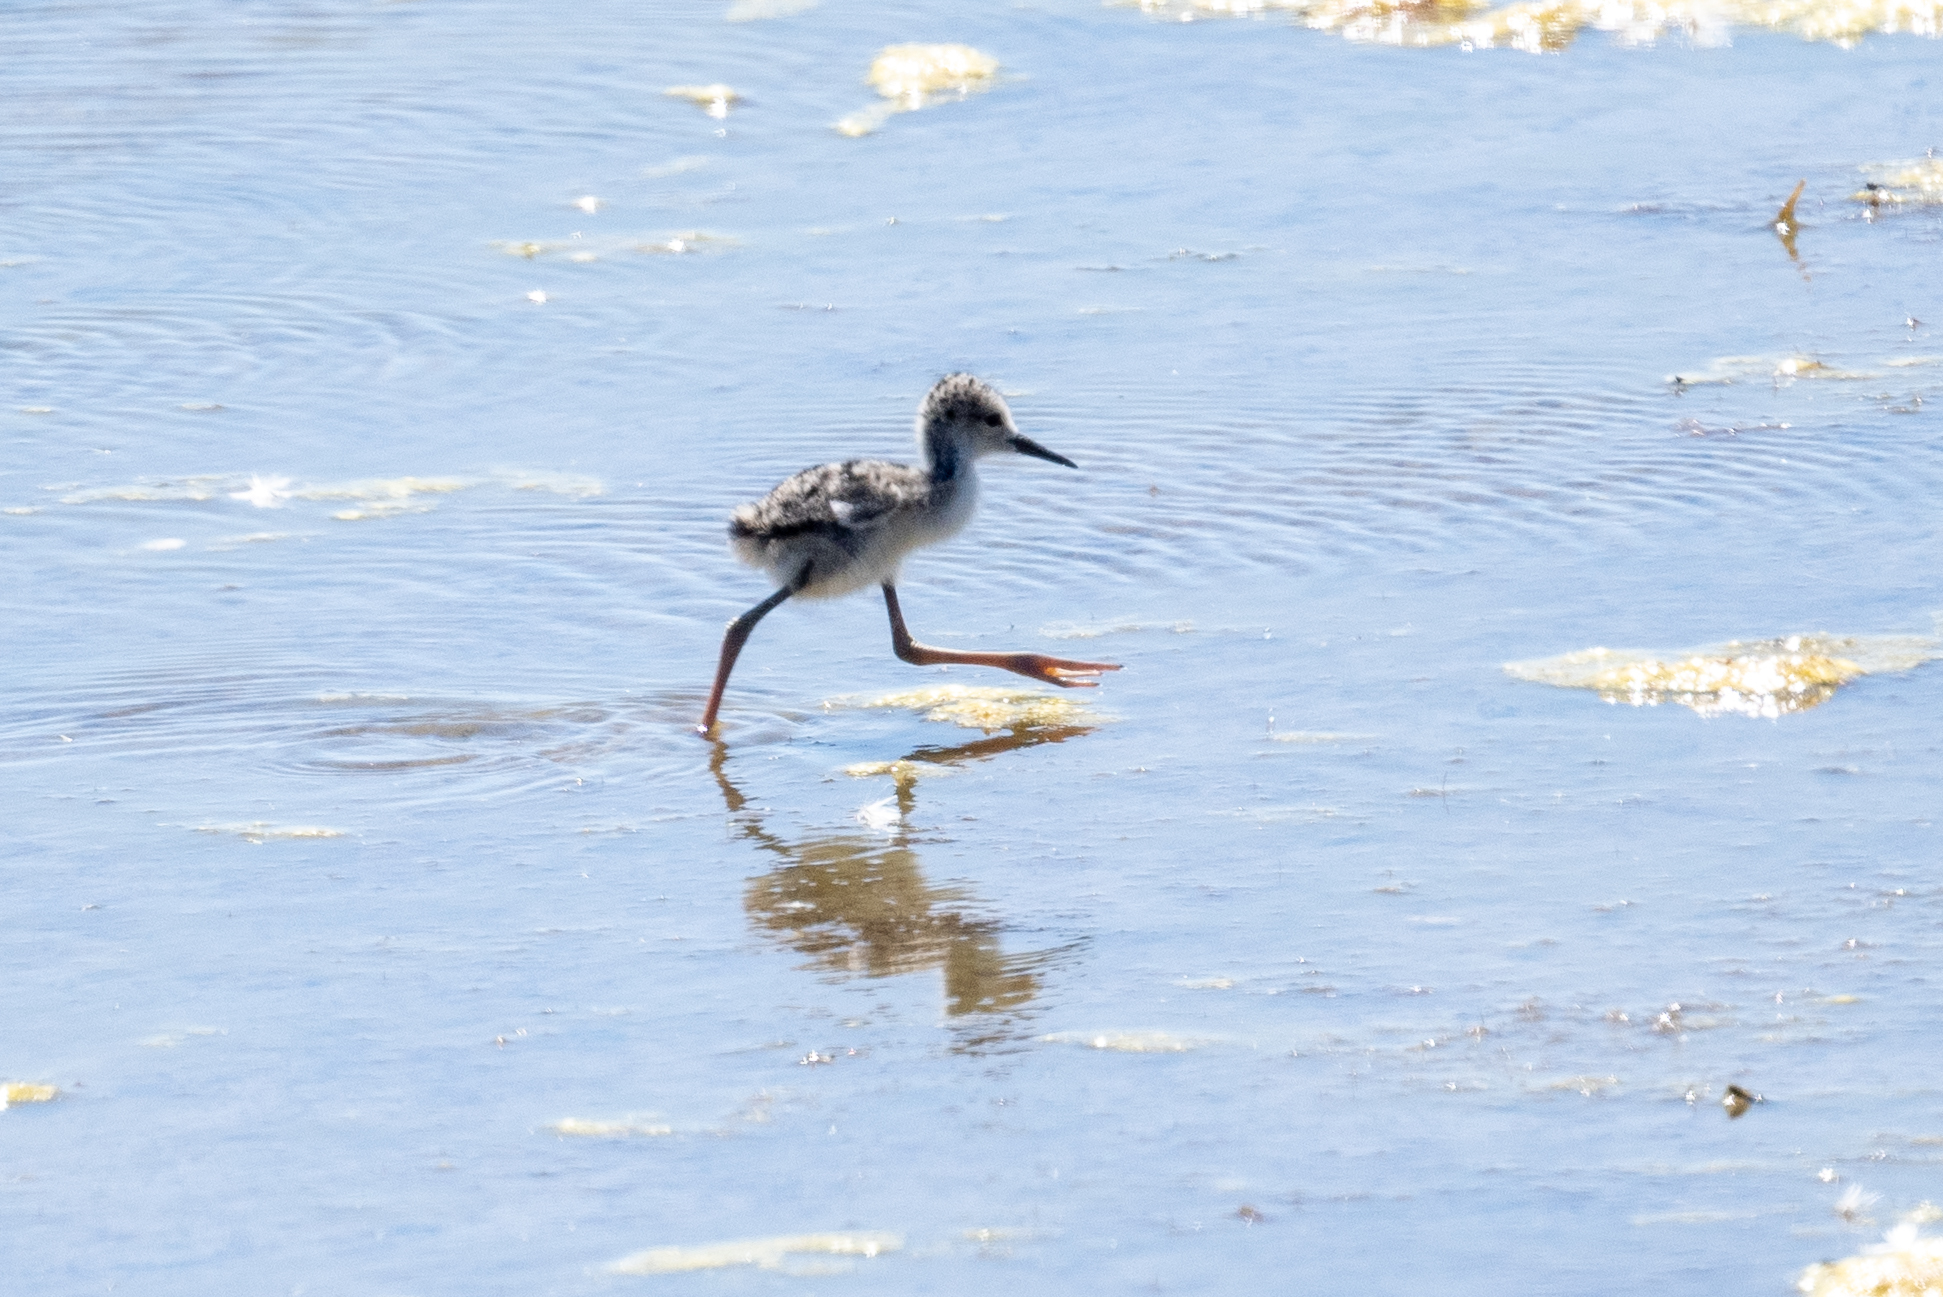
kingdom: Animalia
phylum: Chordata
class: Aves
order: Charadriiformes
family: Recurvirostridae
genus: Himantopus
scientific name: Himantopus mexicanus
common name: Black-necked stilt
